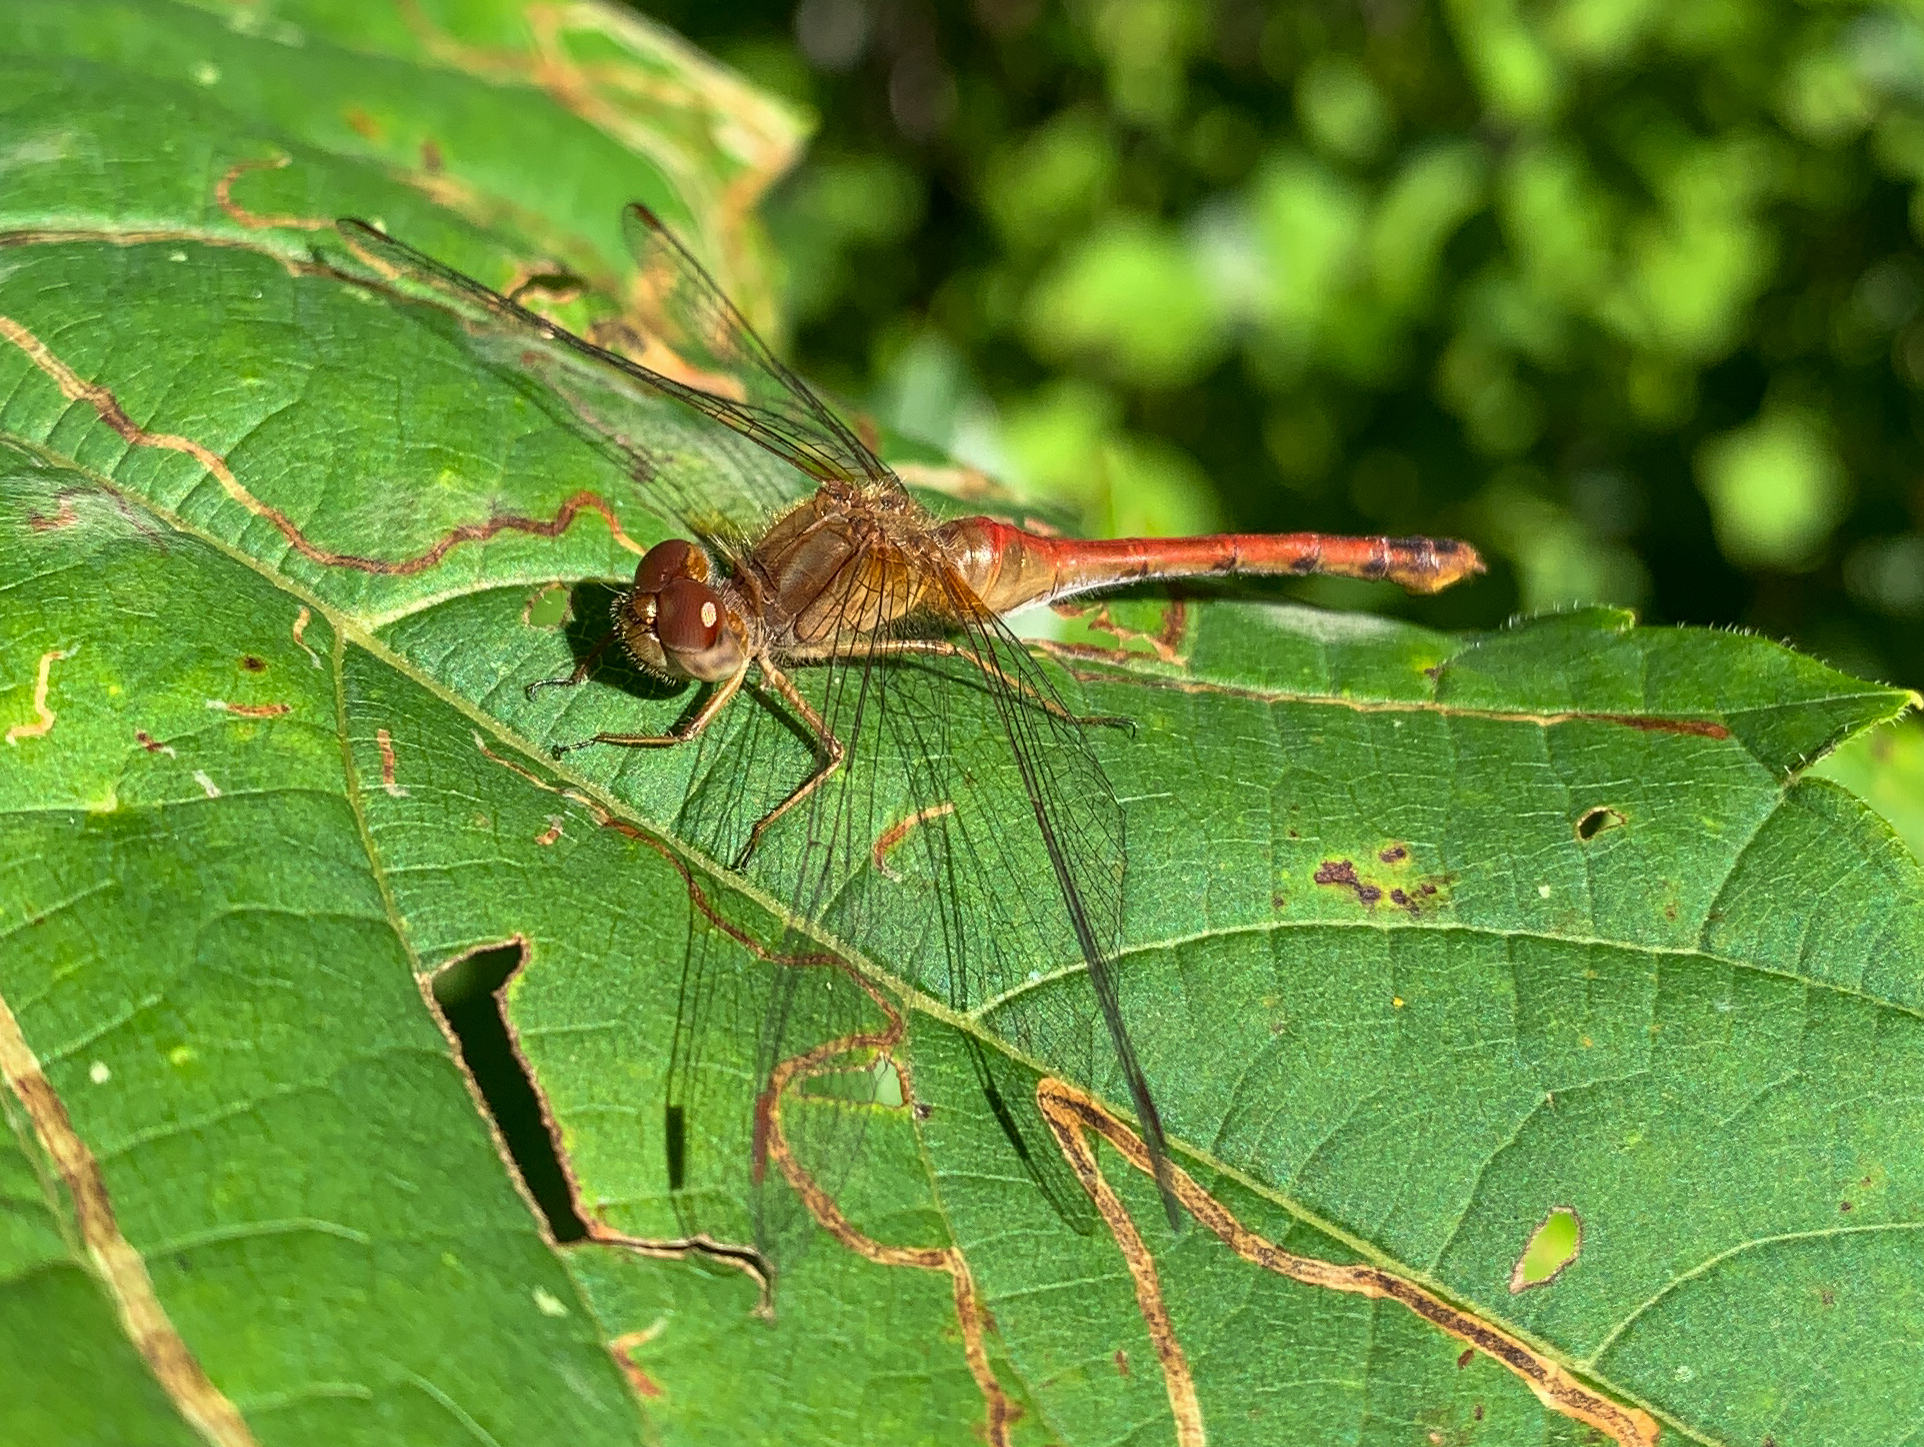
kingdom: Animalia
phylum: Arthropoda
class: Insecta
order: Odonata
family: Libellulidae
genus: Sympetrum
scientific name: Sympetrum vicinum
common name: Autumn meadowhawk
